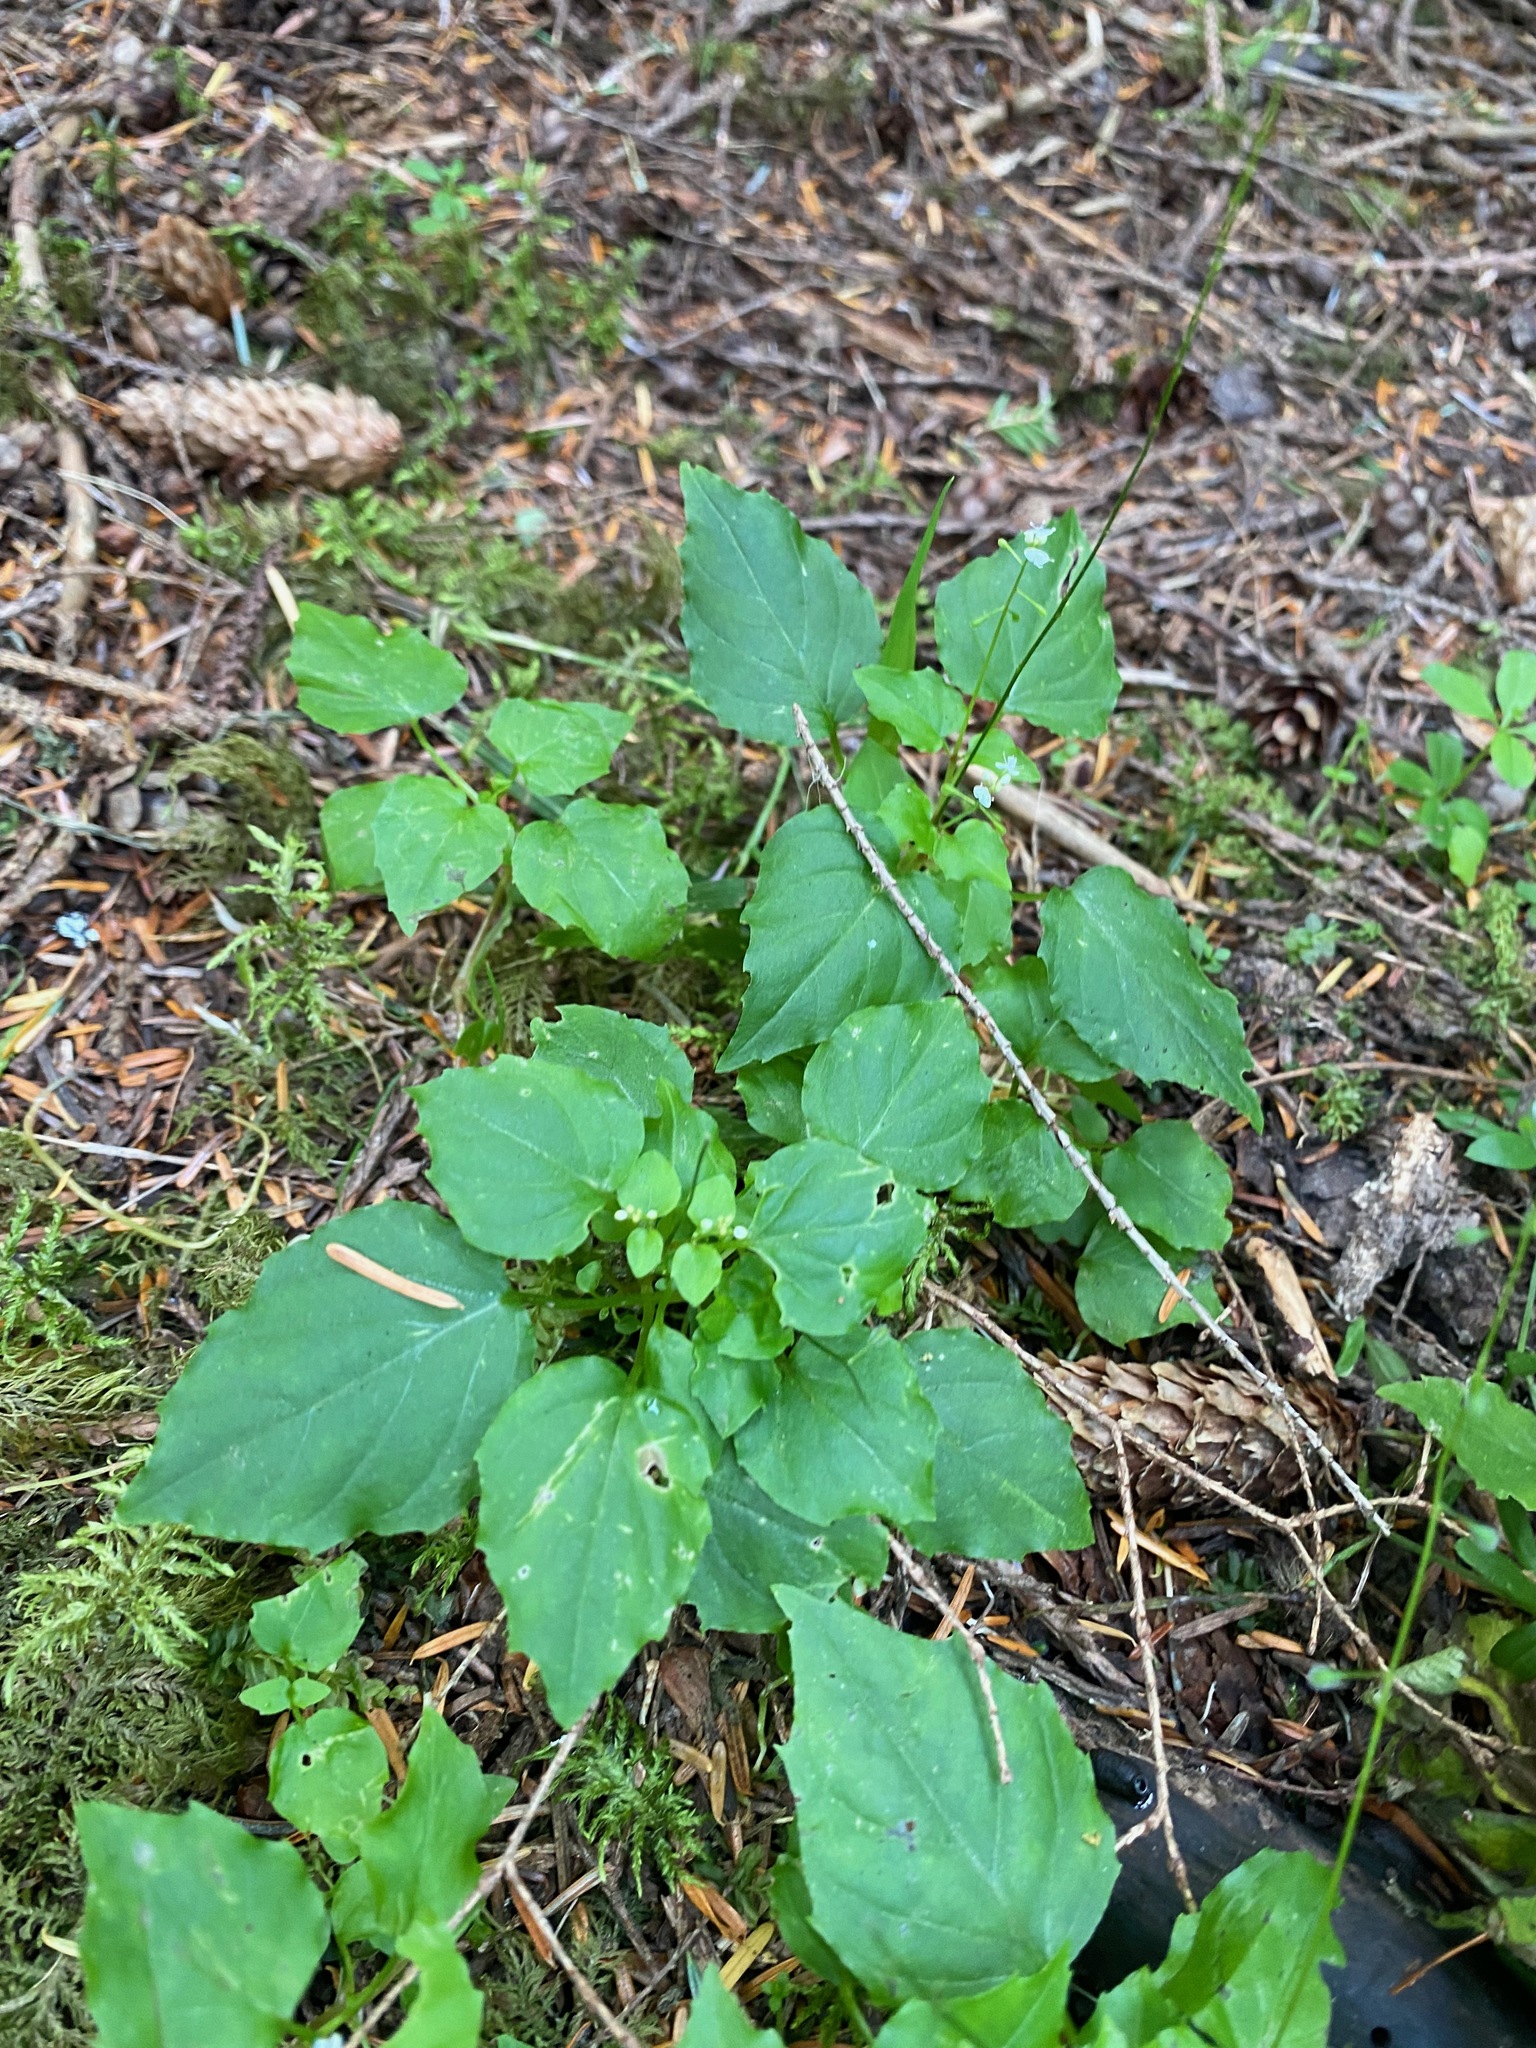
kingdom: Plantae
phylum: Tracheophyta
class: Magnoliopsida
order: Myrtales
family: Onagraceae
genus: Circaea
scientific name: Circaea alpina
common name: Alpine enchanter's-nightshade
